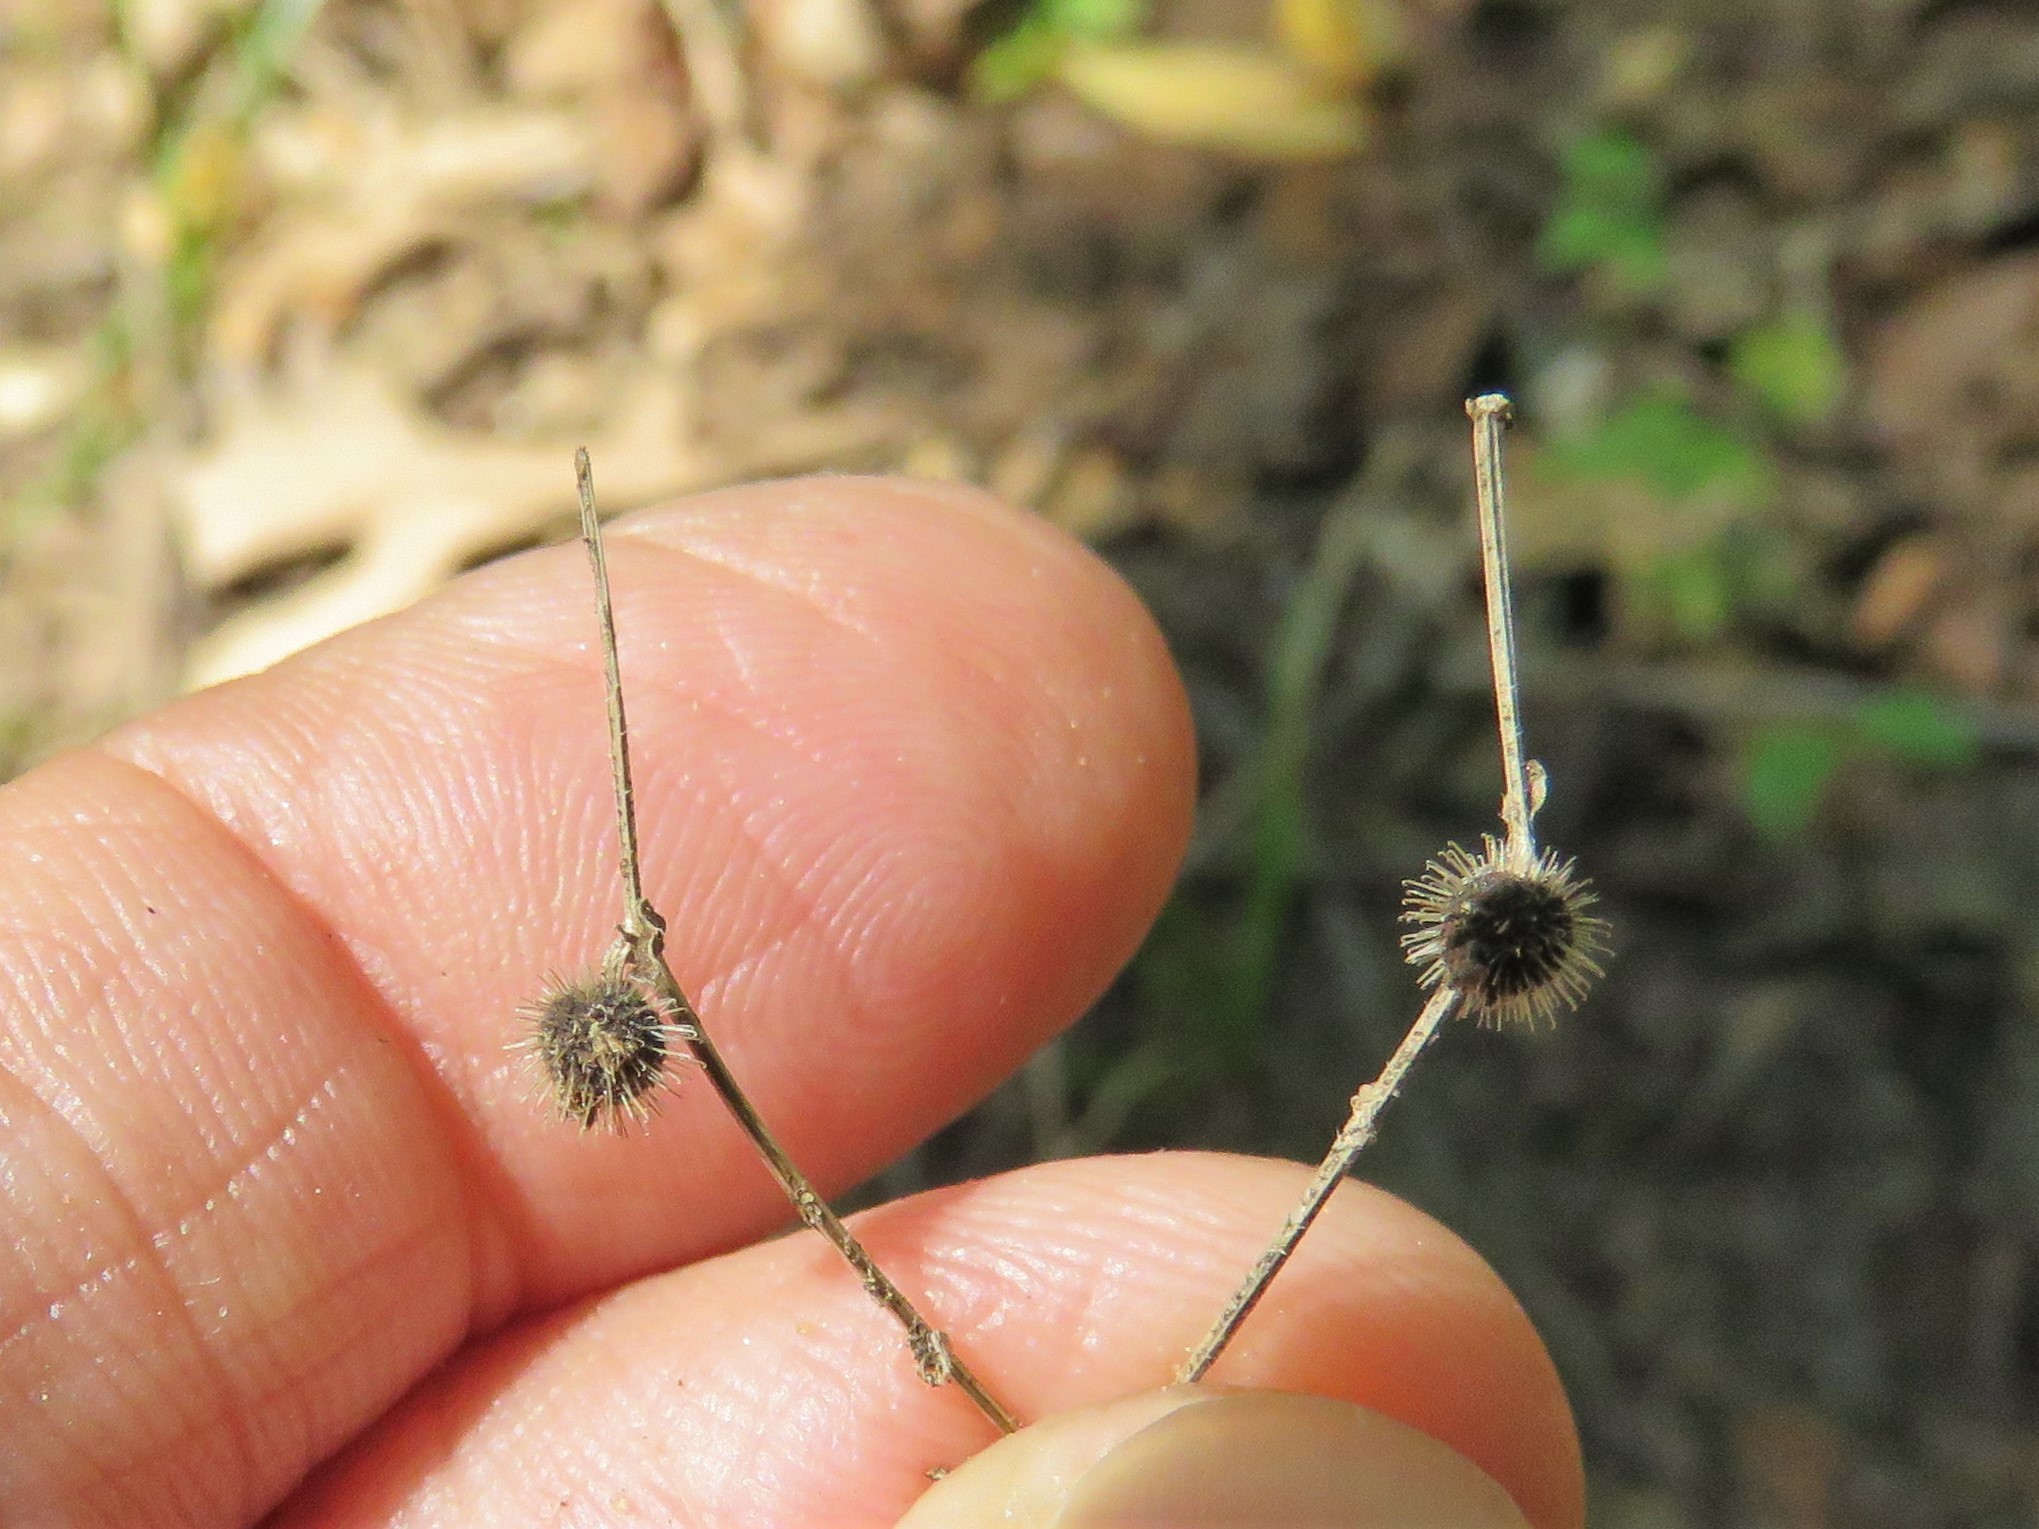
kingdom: Plantae
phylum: Tracheophyta
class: Magnoliopsida
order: Gentianales
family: Rubiaceae
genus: Galium
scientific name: Galium circaezans
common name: Forest bedstraw
